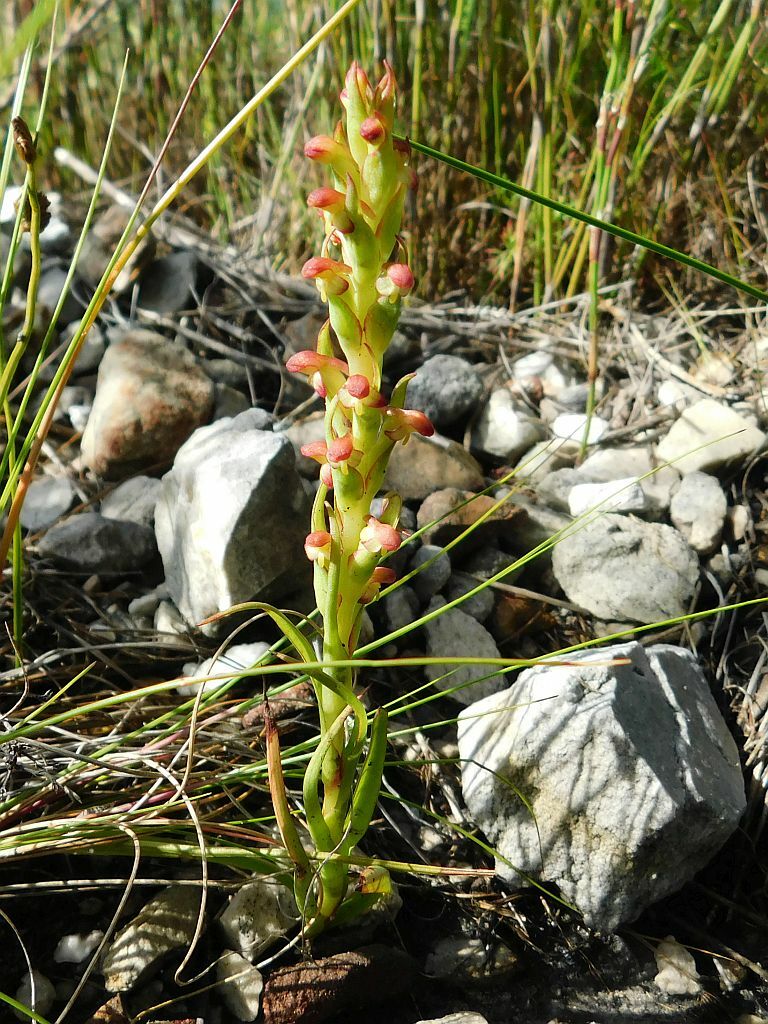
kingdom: Plantae
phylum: Tracheophyta
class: Liliopsida
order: Asparagales
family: Orchidaceae
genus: Disa
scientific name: Disa bracteata
